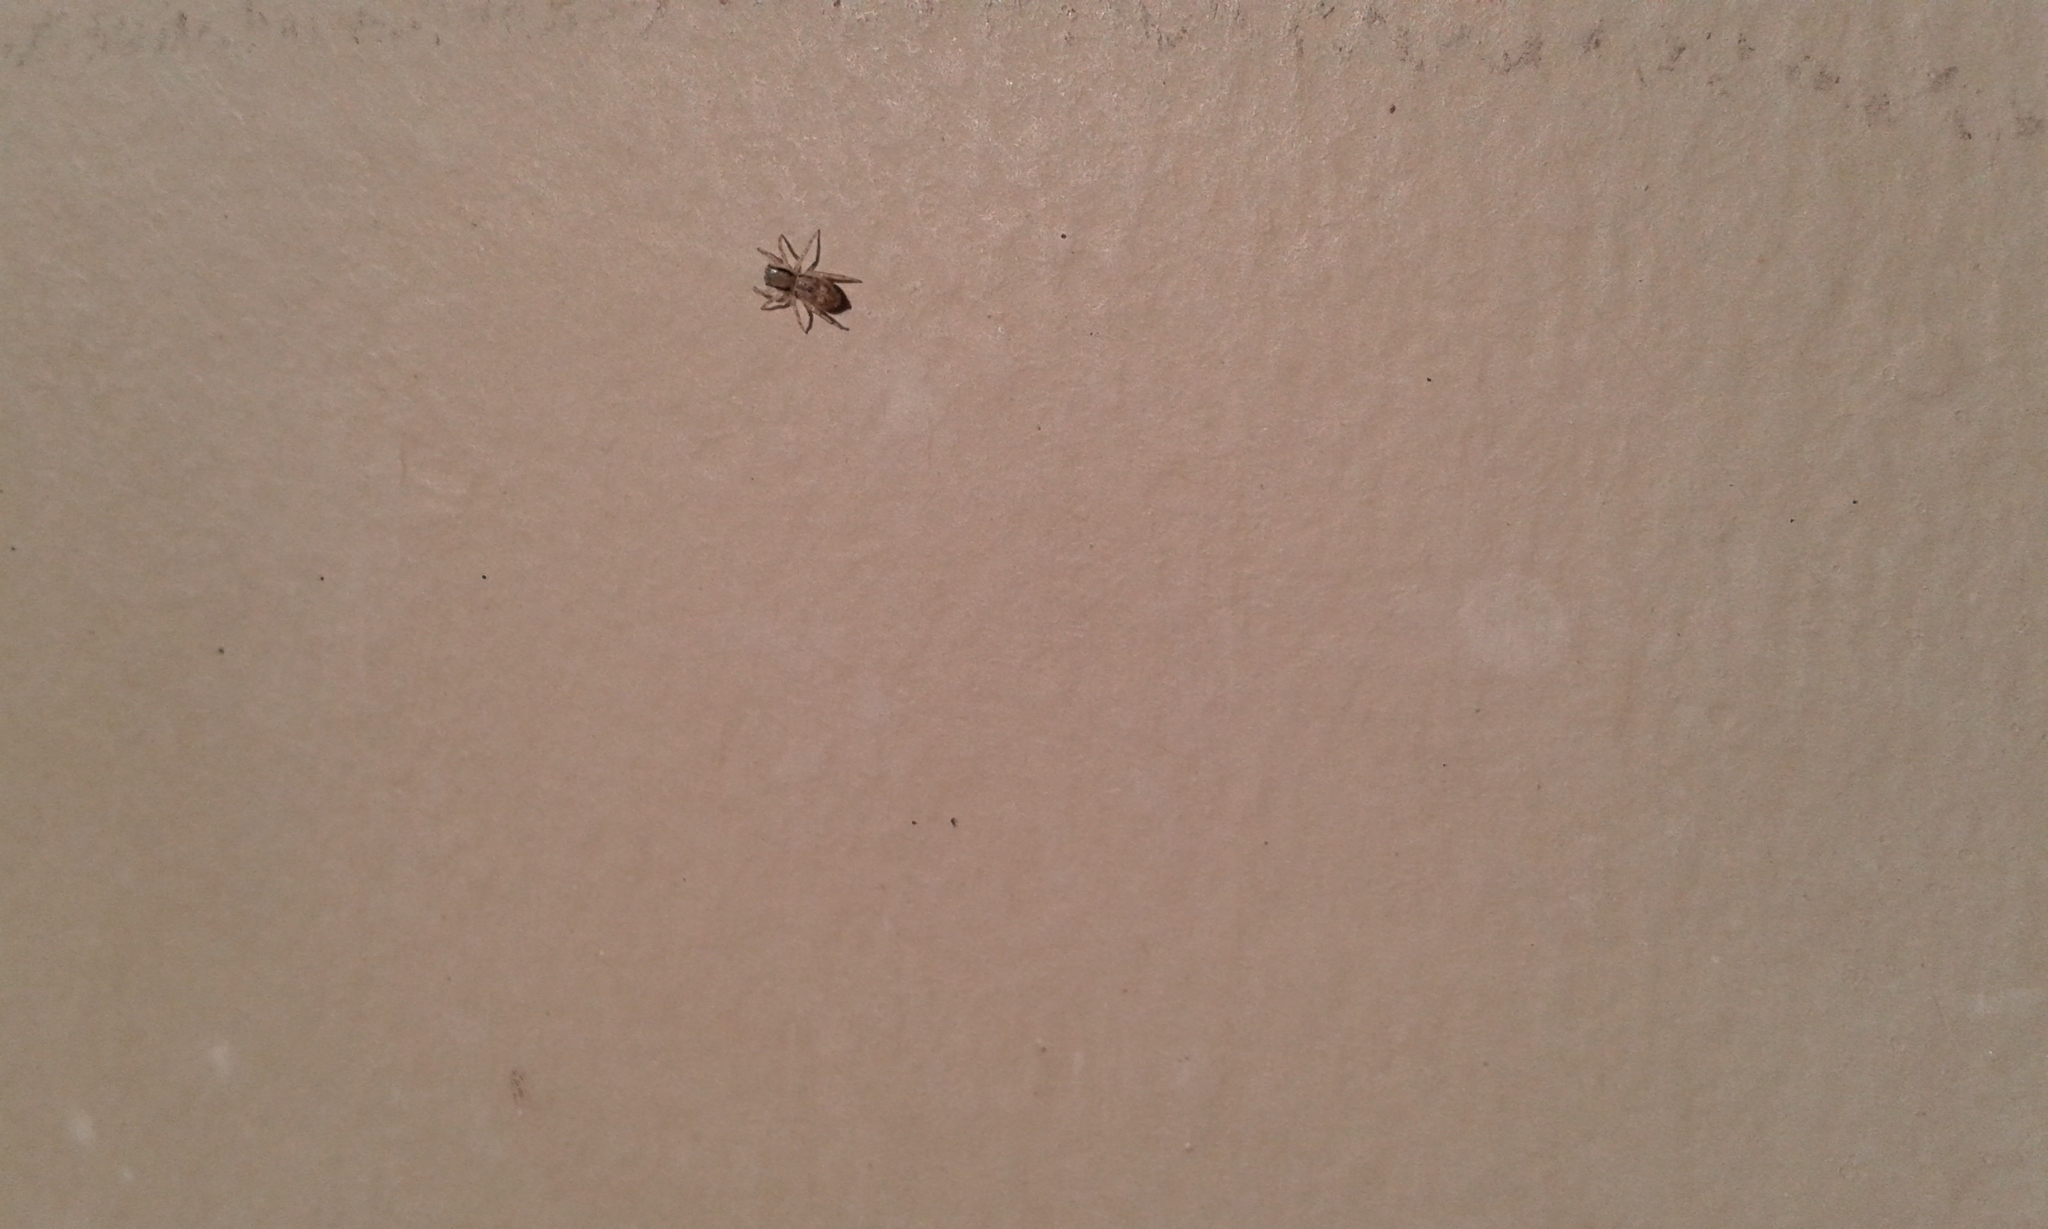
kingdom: Animalia
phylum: Arthropoda
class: Arachnida
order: Araneae
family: Salticidae
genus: Menemerus
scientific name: Menemerus bivittatus
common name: Gray wall jumper
